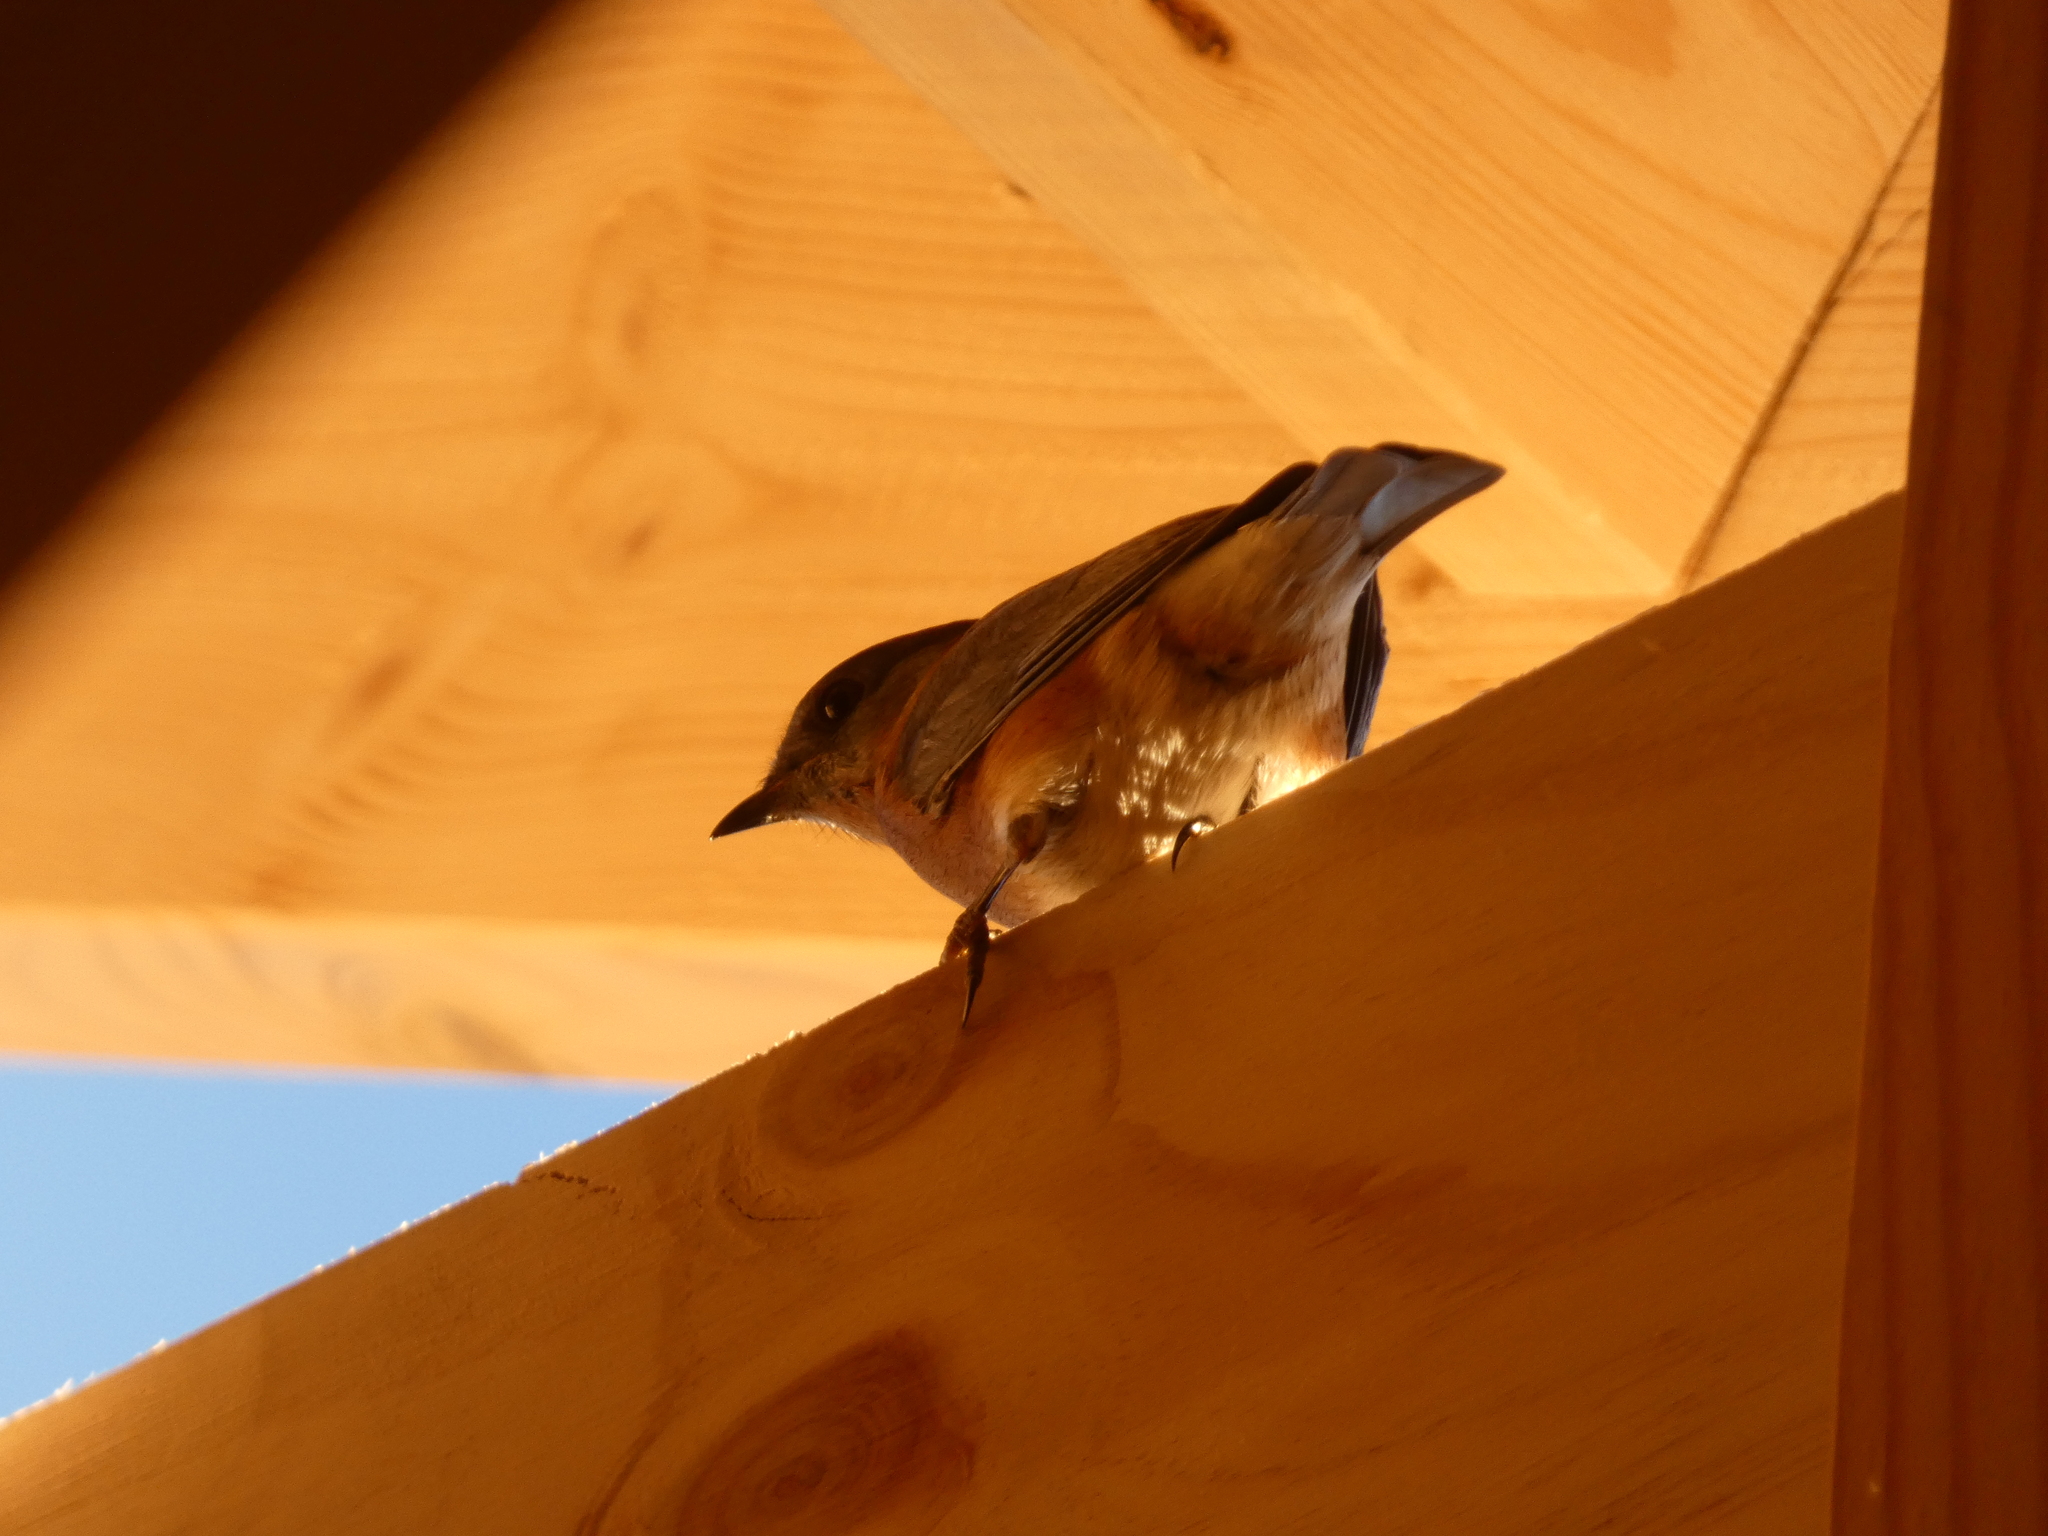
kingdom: Animalia
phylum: Chordata
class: Aves
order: Passeriformes
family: Turdidae
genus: Sialia
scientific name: Sialia sialis
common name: Eastern bluebird
